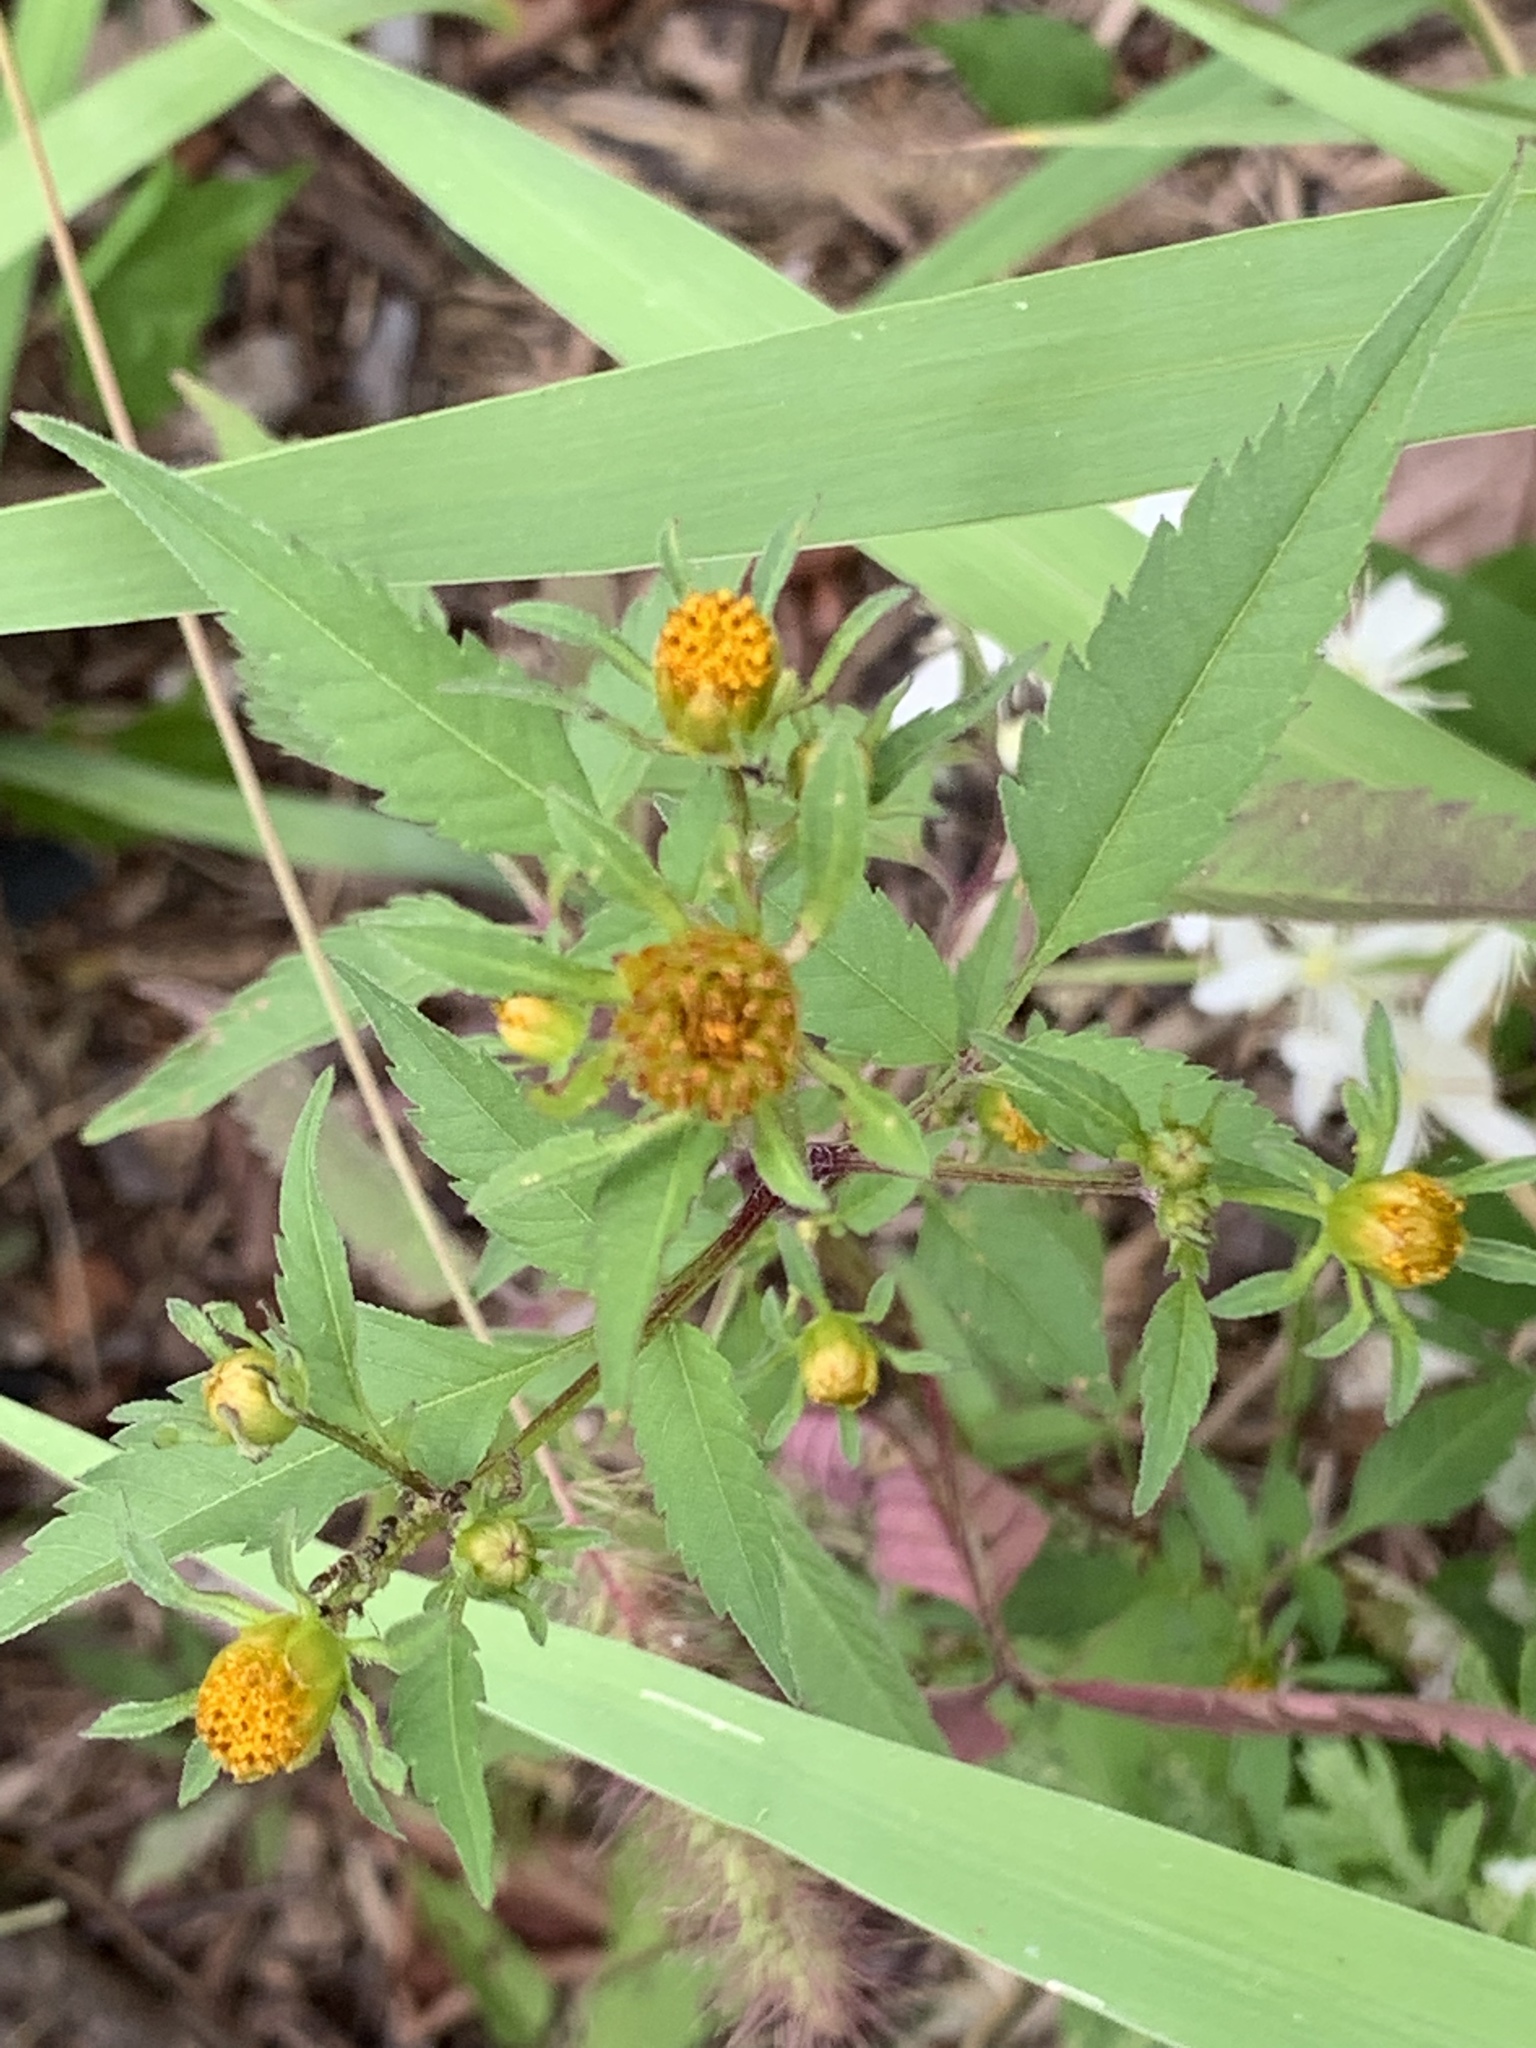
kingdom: Plantae
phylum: Tracheophyta
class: Magnoliopsida
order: Asterales
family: Asteraceae
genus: Bidens
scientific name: Bidens frondosa
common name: Beggarticks
